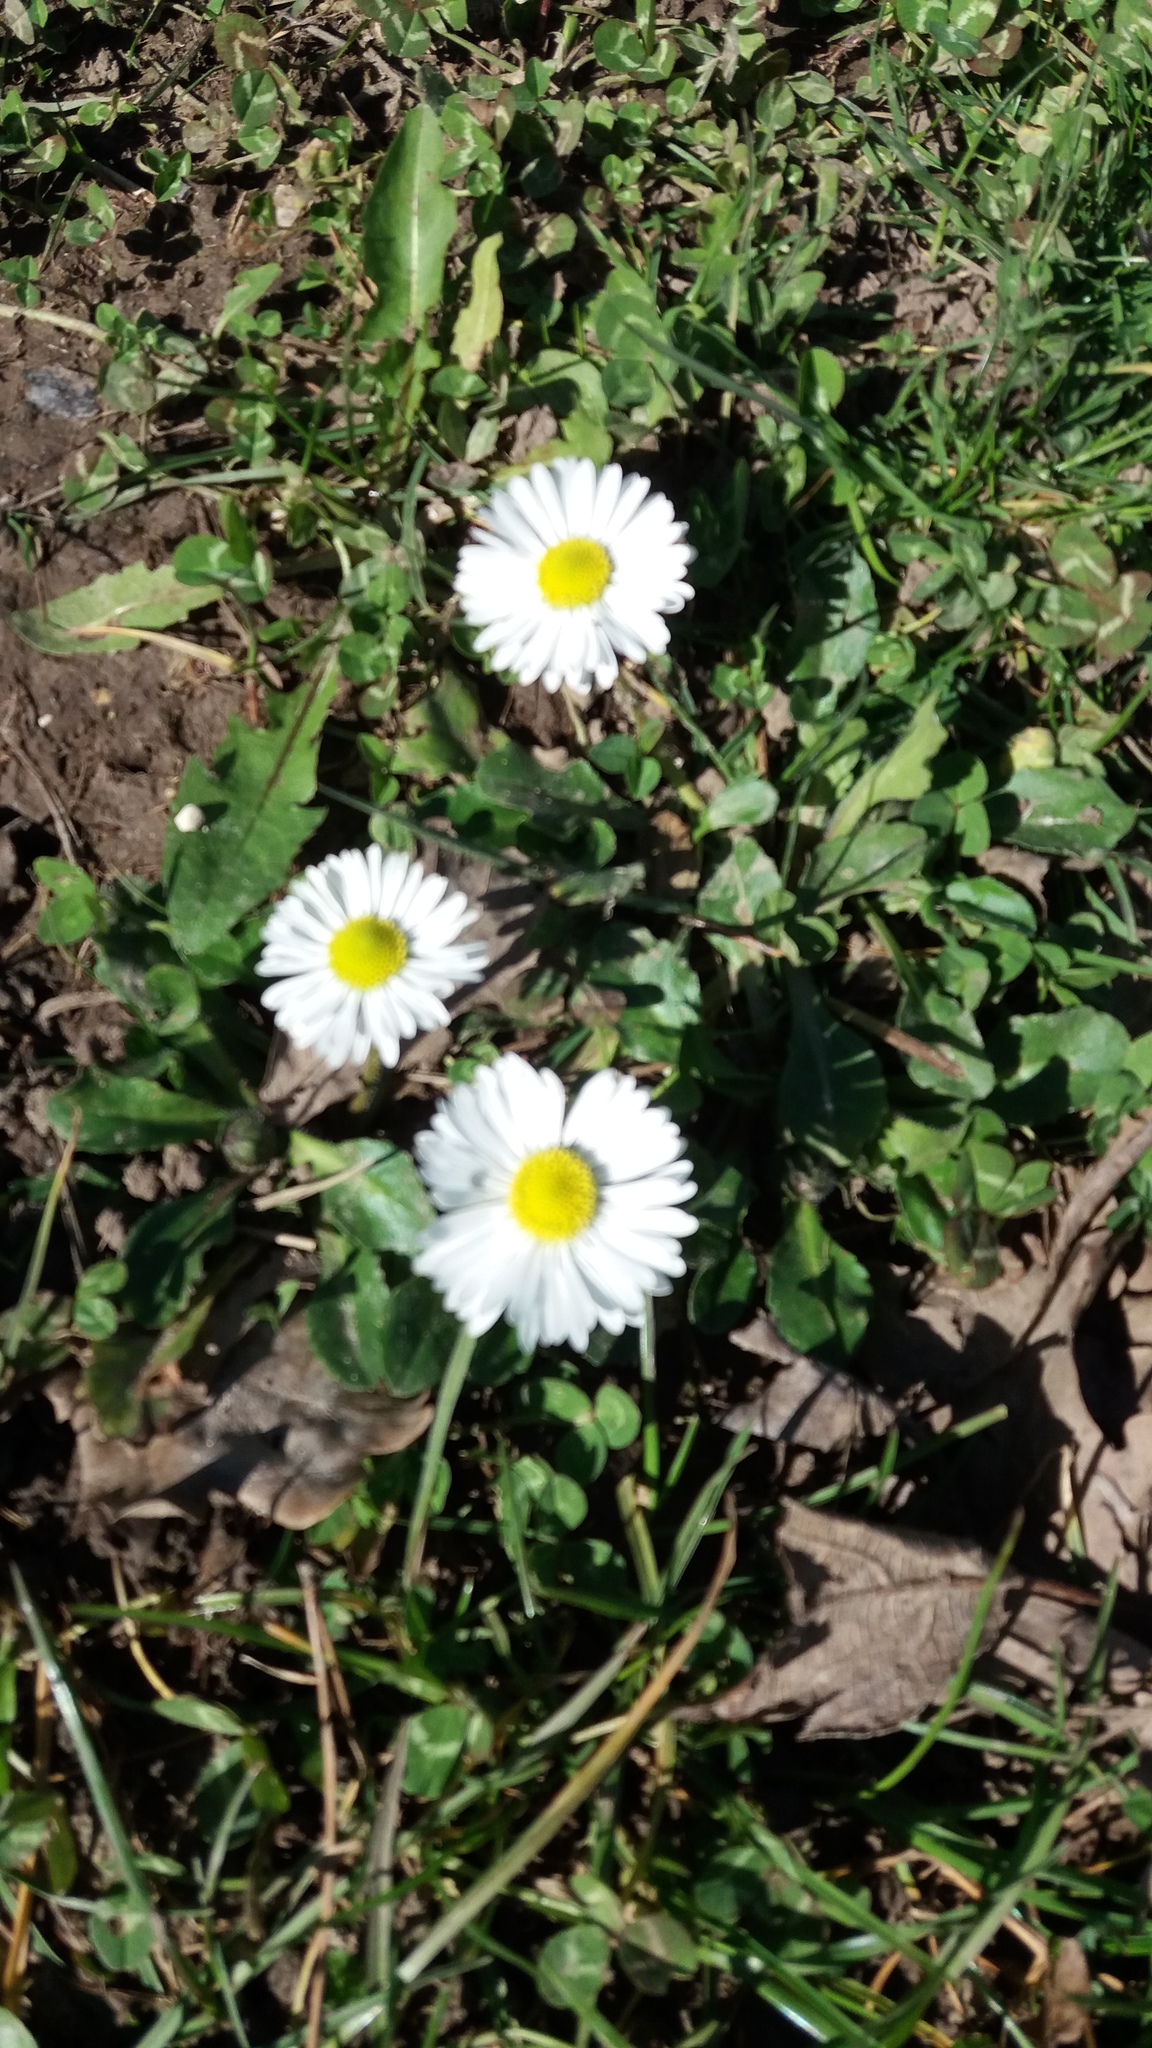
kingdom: Plantae
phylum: Tracheophyta
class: Magnoliopsida
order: Asterales
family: Asteraceae
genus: Bellis
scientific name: Bellis perennis
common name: Lawndaisy
